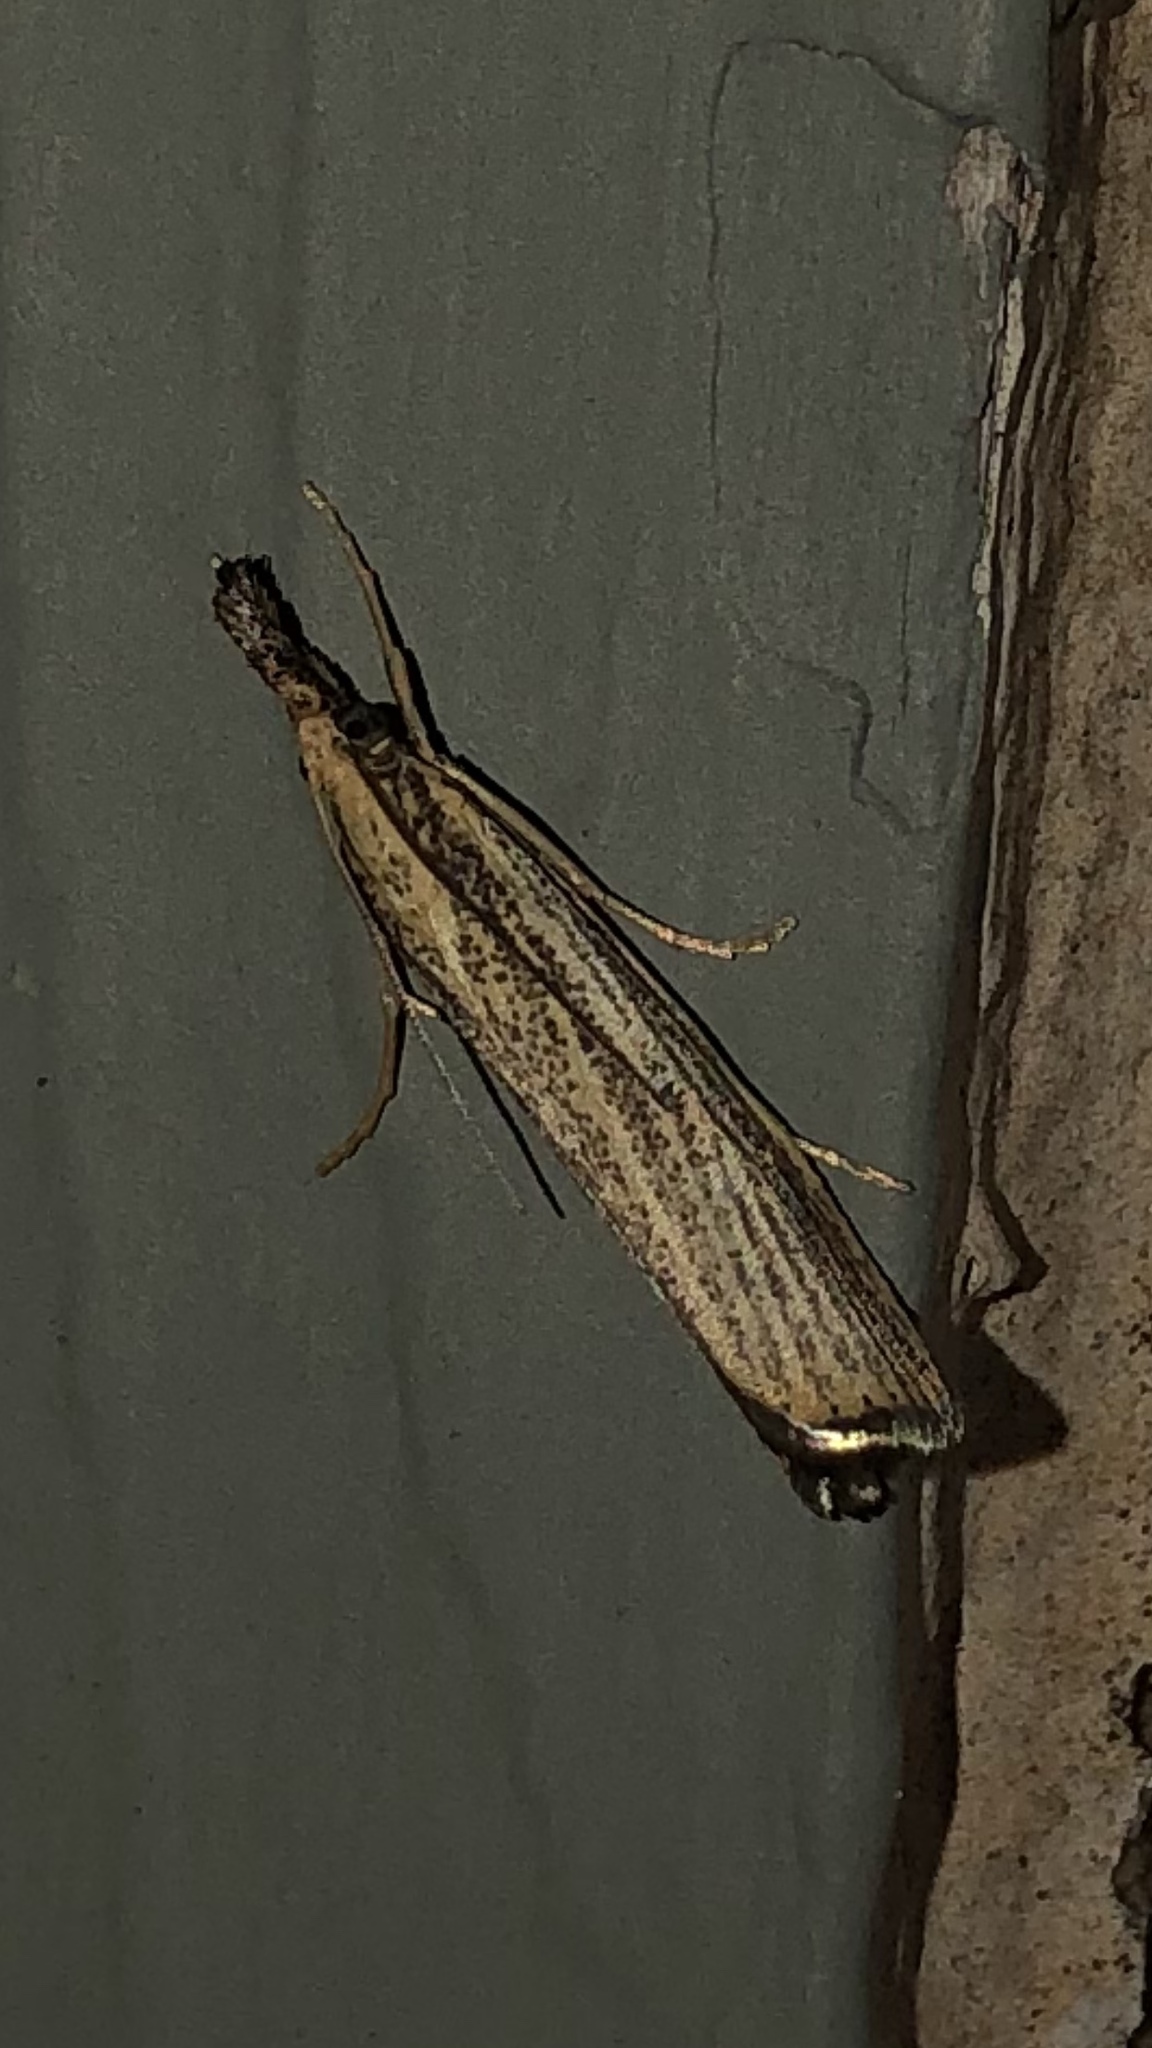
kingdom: Animalia
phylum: Arthropoda
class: Insecta
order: Lepidoptera
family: Crambidae
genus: Agriphila
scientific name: Agriphila vulgivagellus
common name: Vagabond crambus moth
